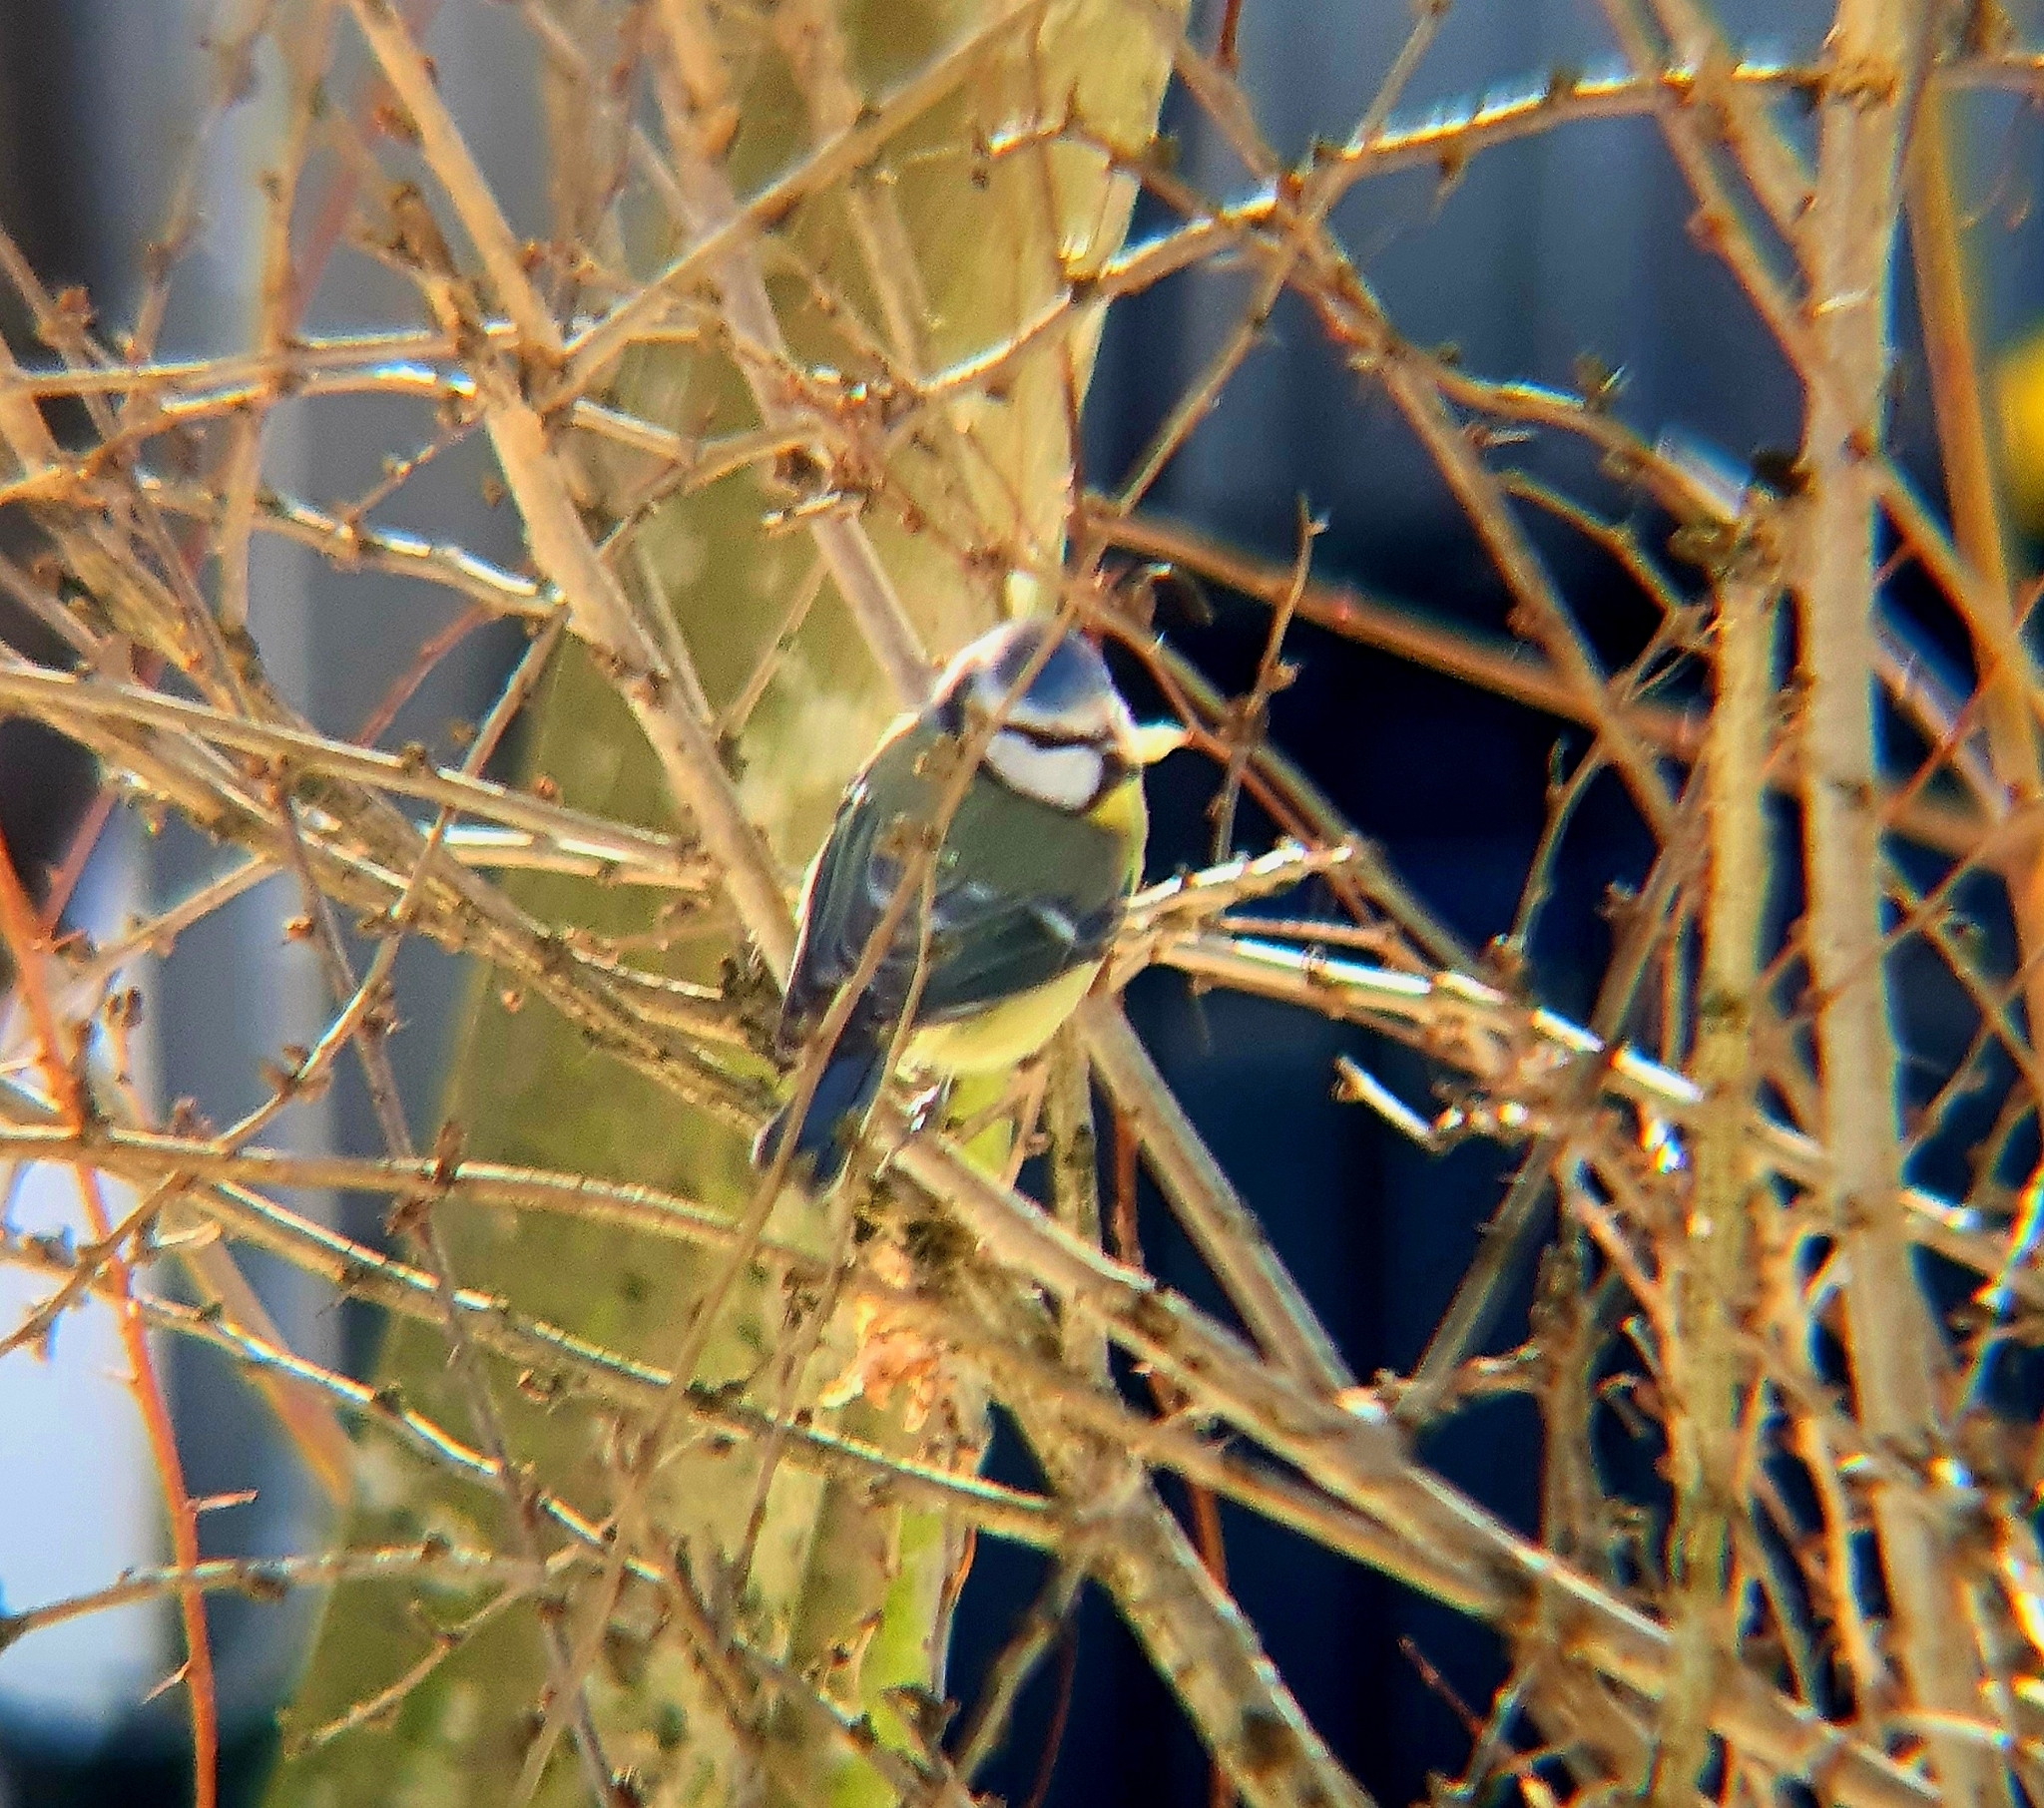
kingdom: Animalia
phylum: Chordata
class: Aves
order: Passeriformes
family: Paridae
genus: Cyanistes
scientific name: Cyanistes caeruleus
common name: Eurasian blue tit
